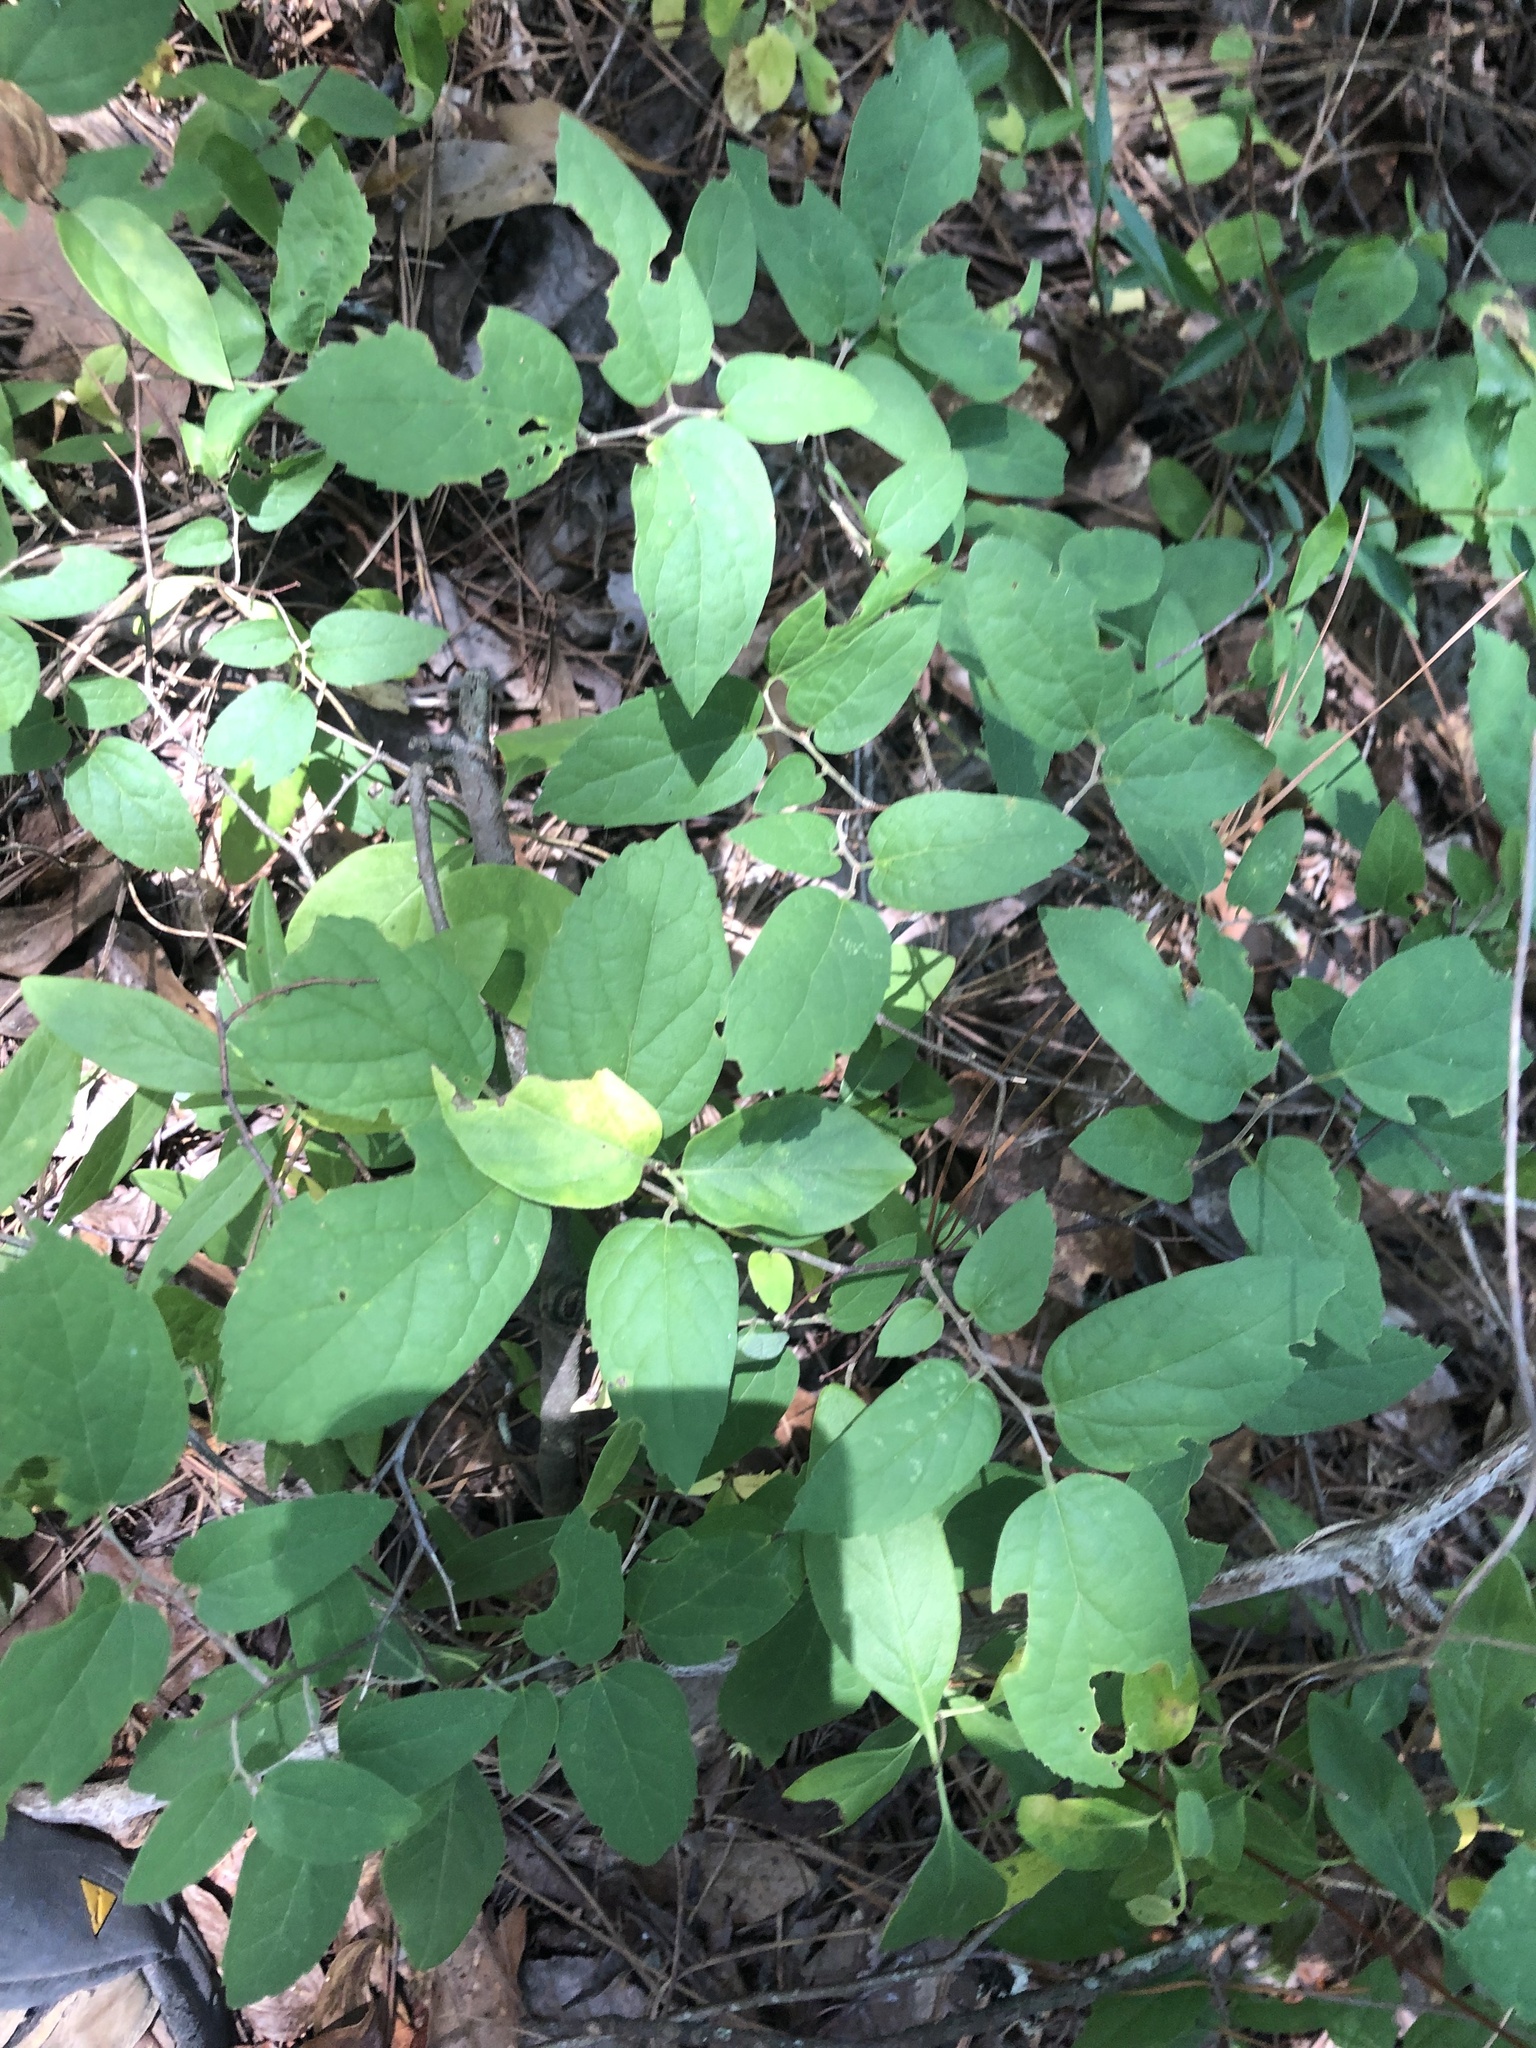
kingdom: Plantae
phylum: Tracheophyta
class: Magnoliopsida
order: Rosales
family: Cannabaceae
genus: Celtis
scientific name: Celtis tenuifolia
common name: Georgia hackberry
